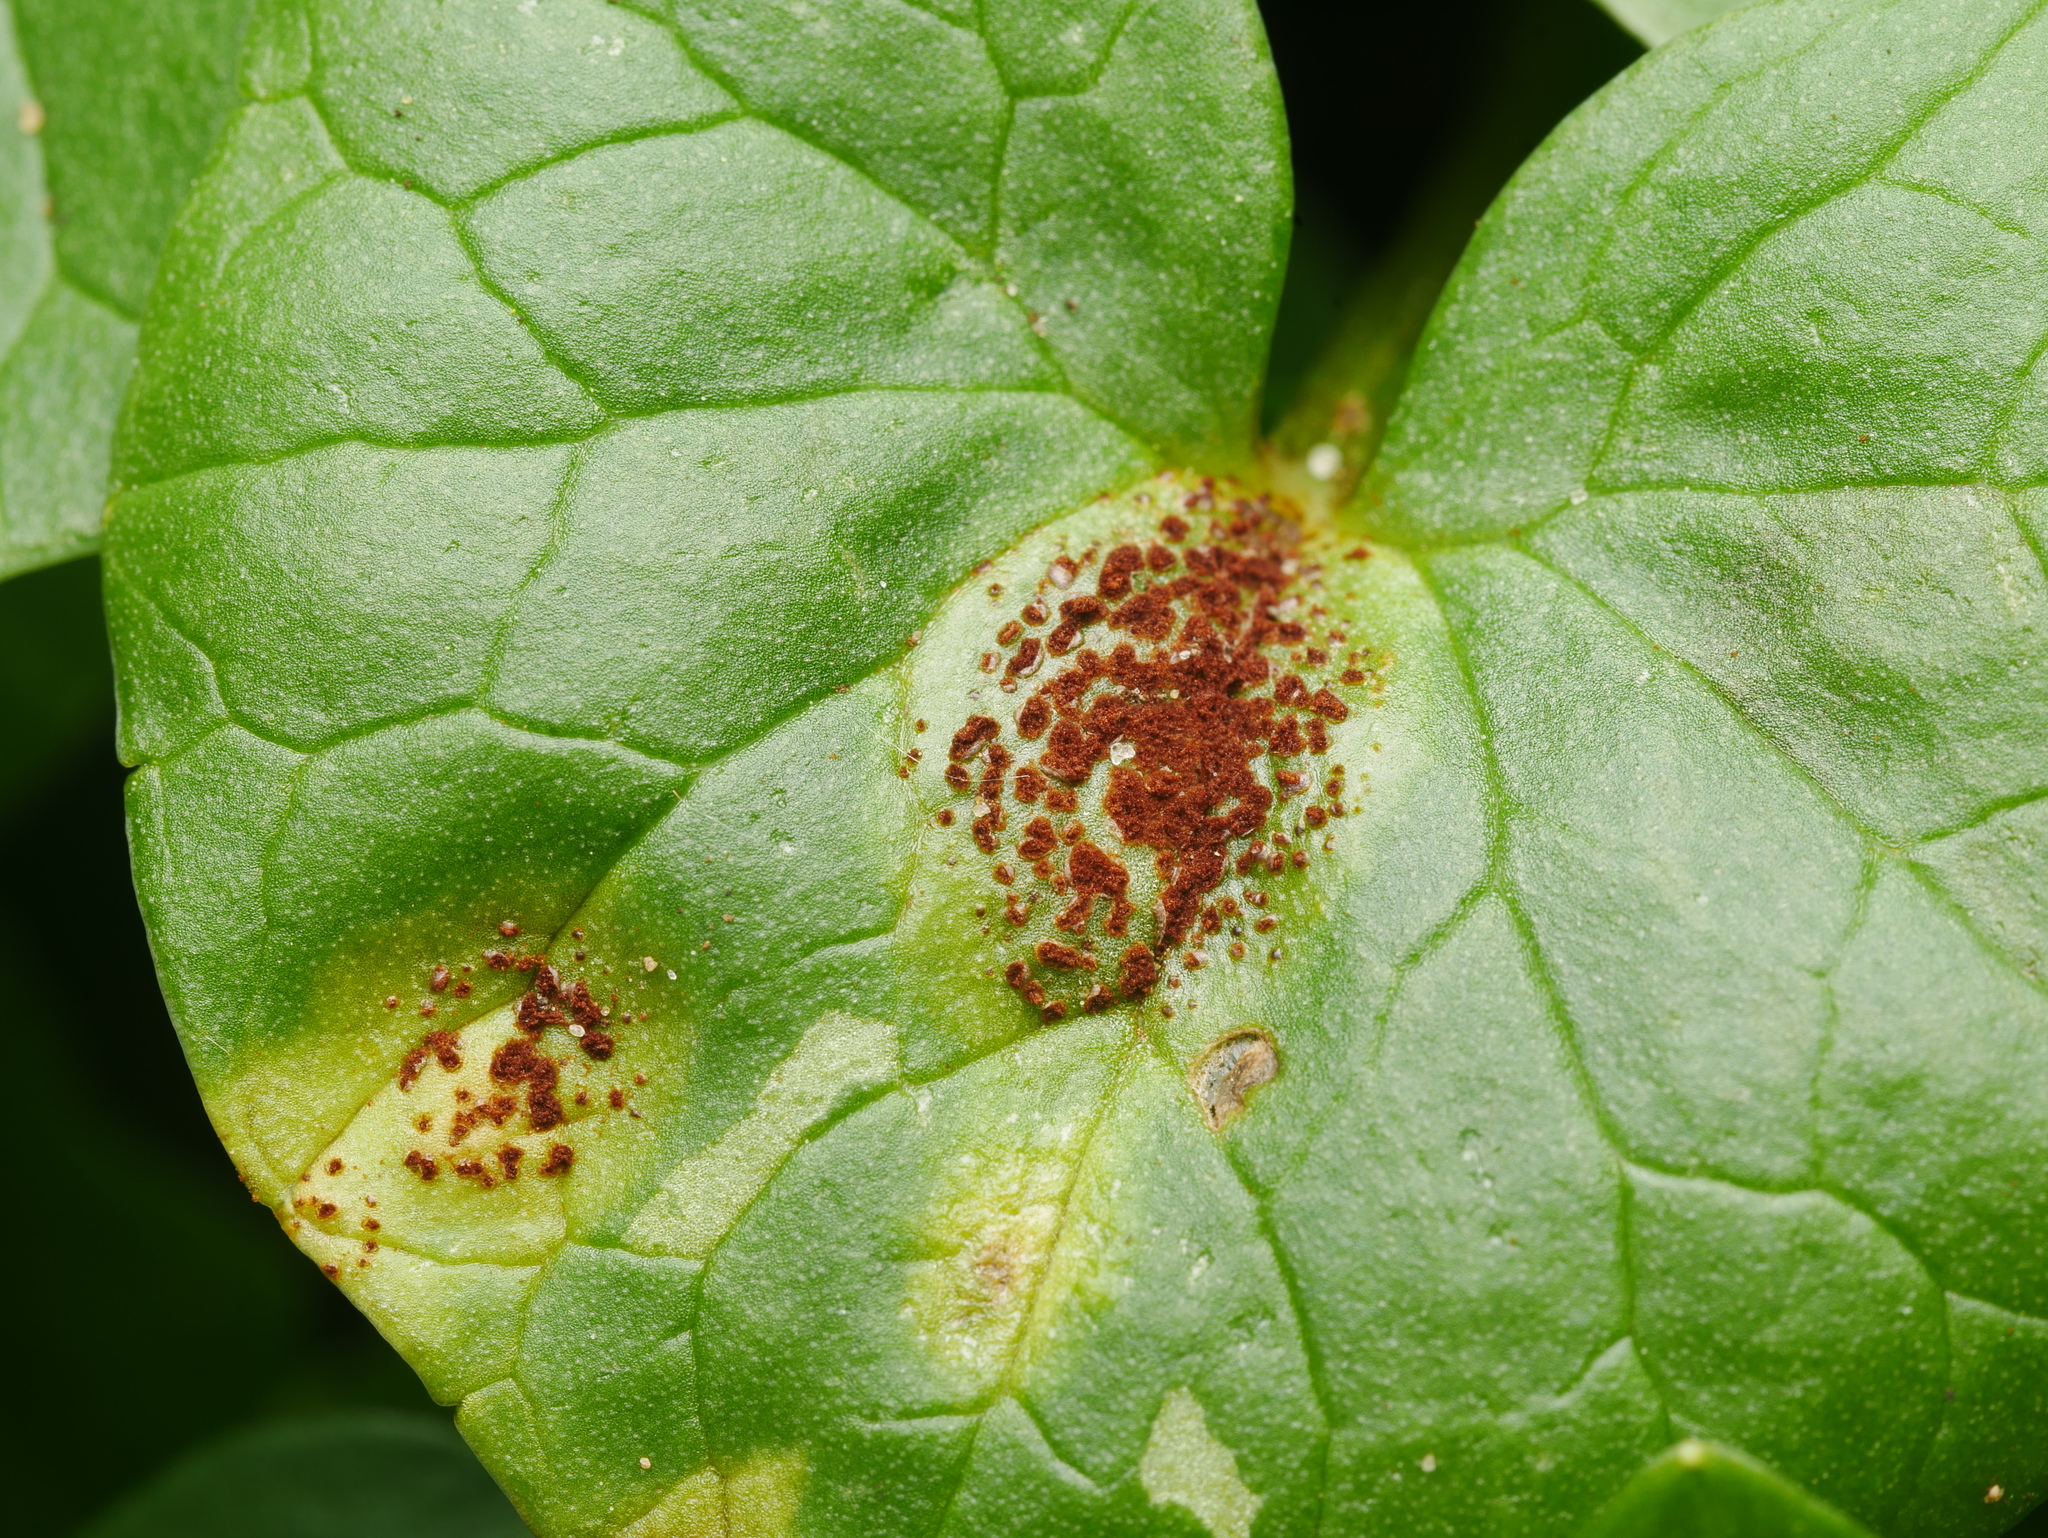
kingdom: Fungi
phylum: Basidiomycota
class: Pucciniomycetes
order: Pucciniales
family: Pucciniaceae
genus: Uromyces
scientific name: Uromyces ficariae
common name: Bitter chocolate rust
